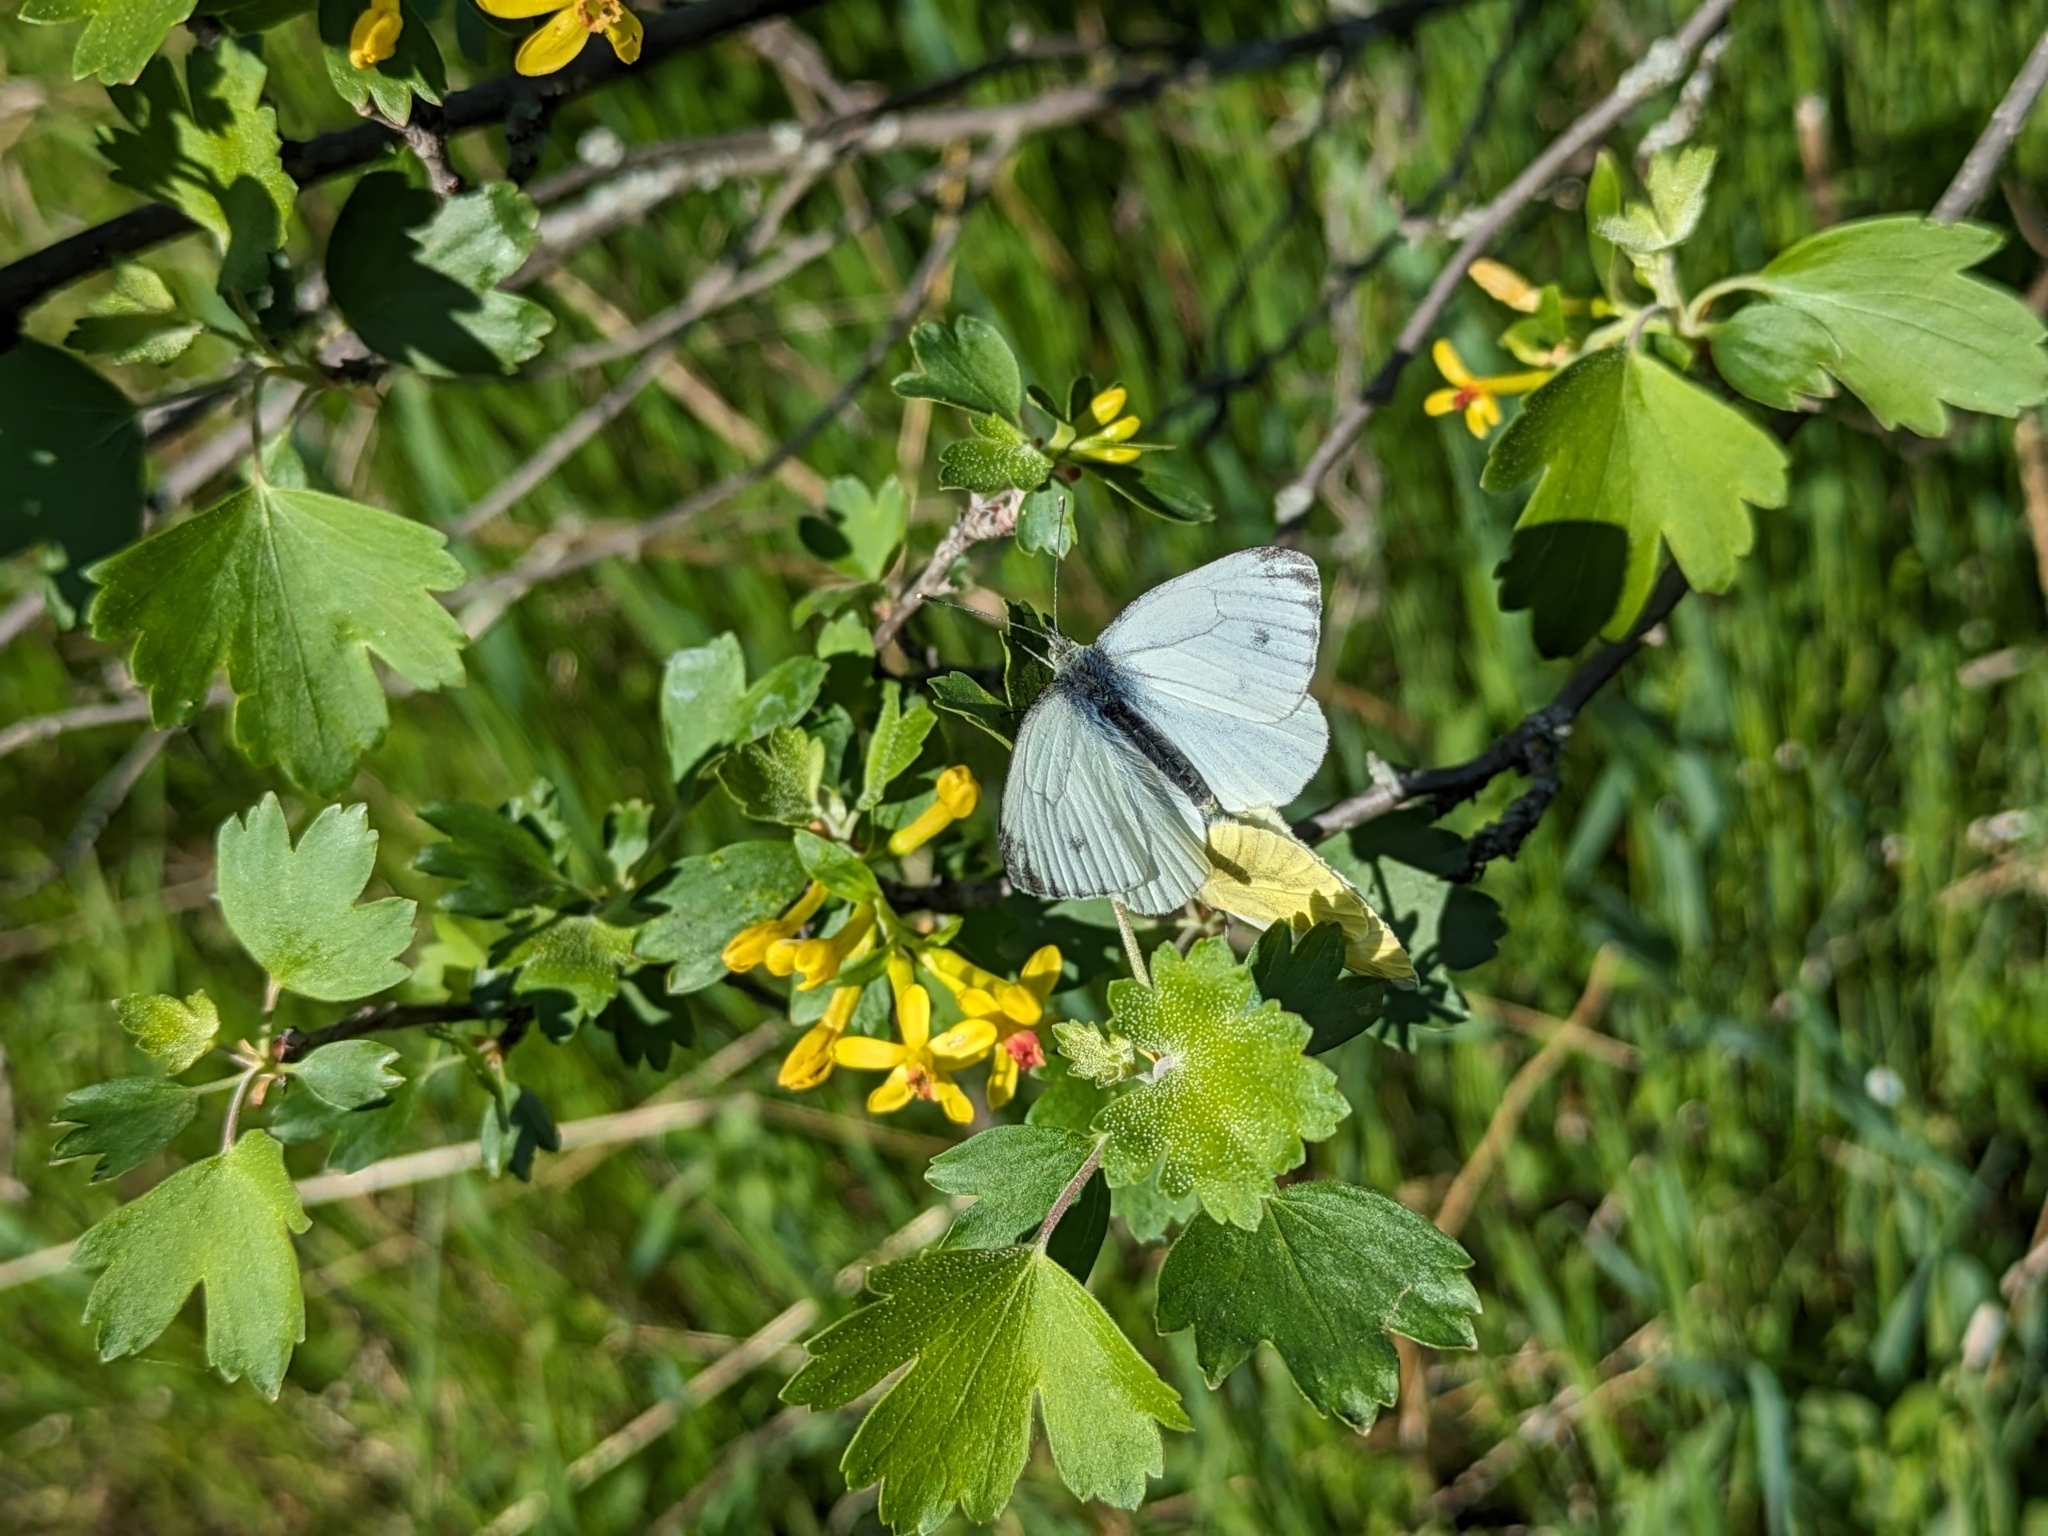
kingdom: Animalia
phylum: Arthropoda
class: Insecta
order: Lepidoptera
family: Pieridae
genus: Pieris
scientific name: Pieris napi
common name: Green-veined white
